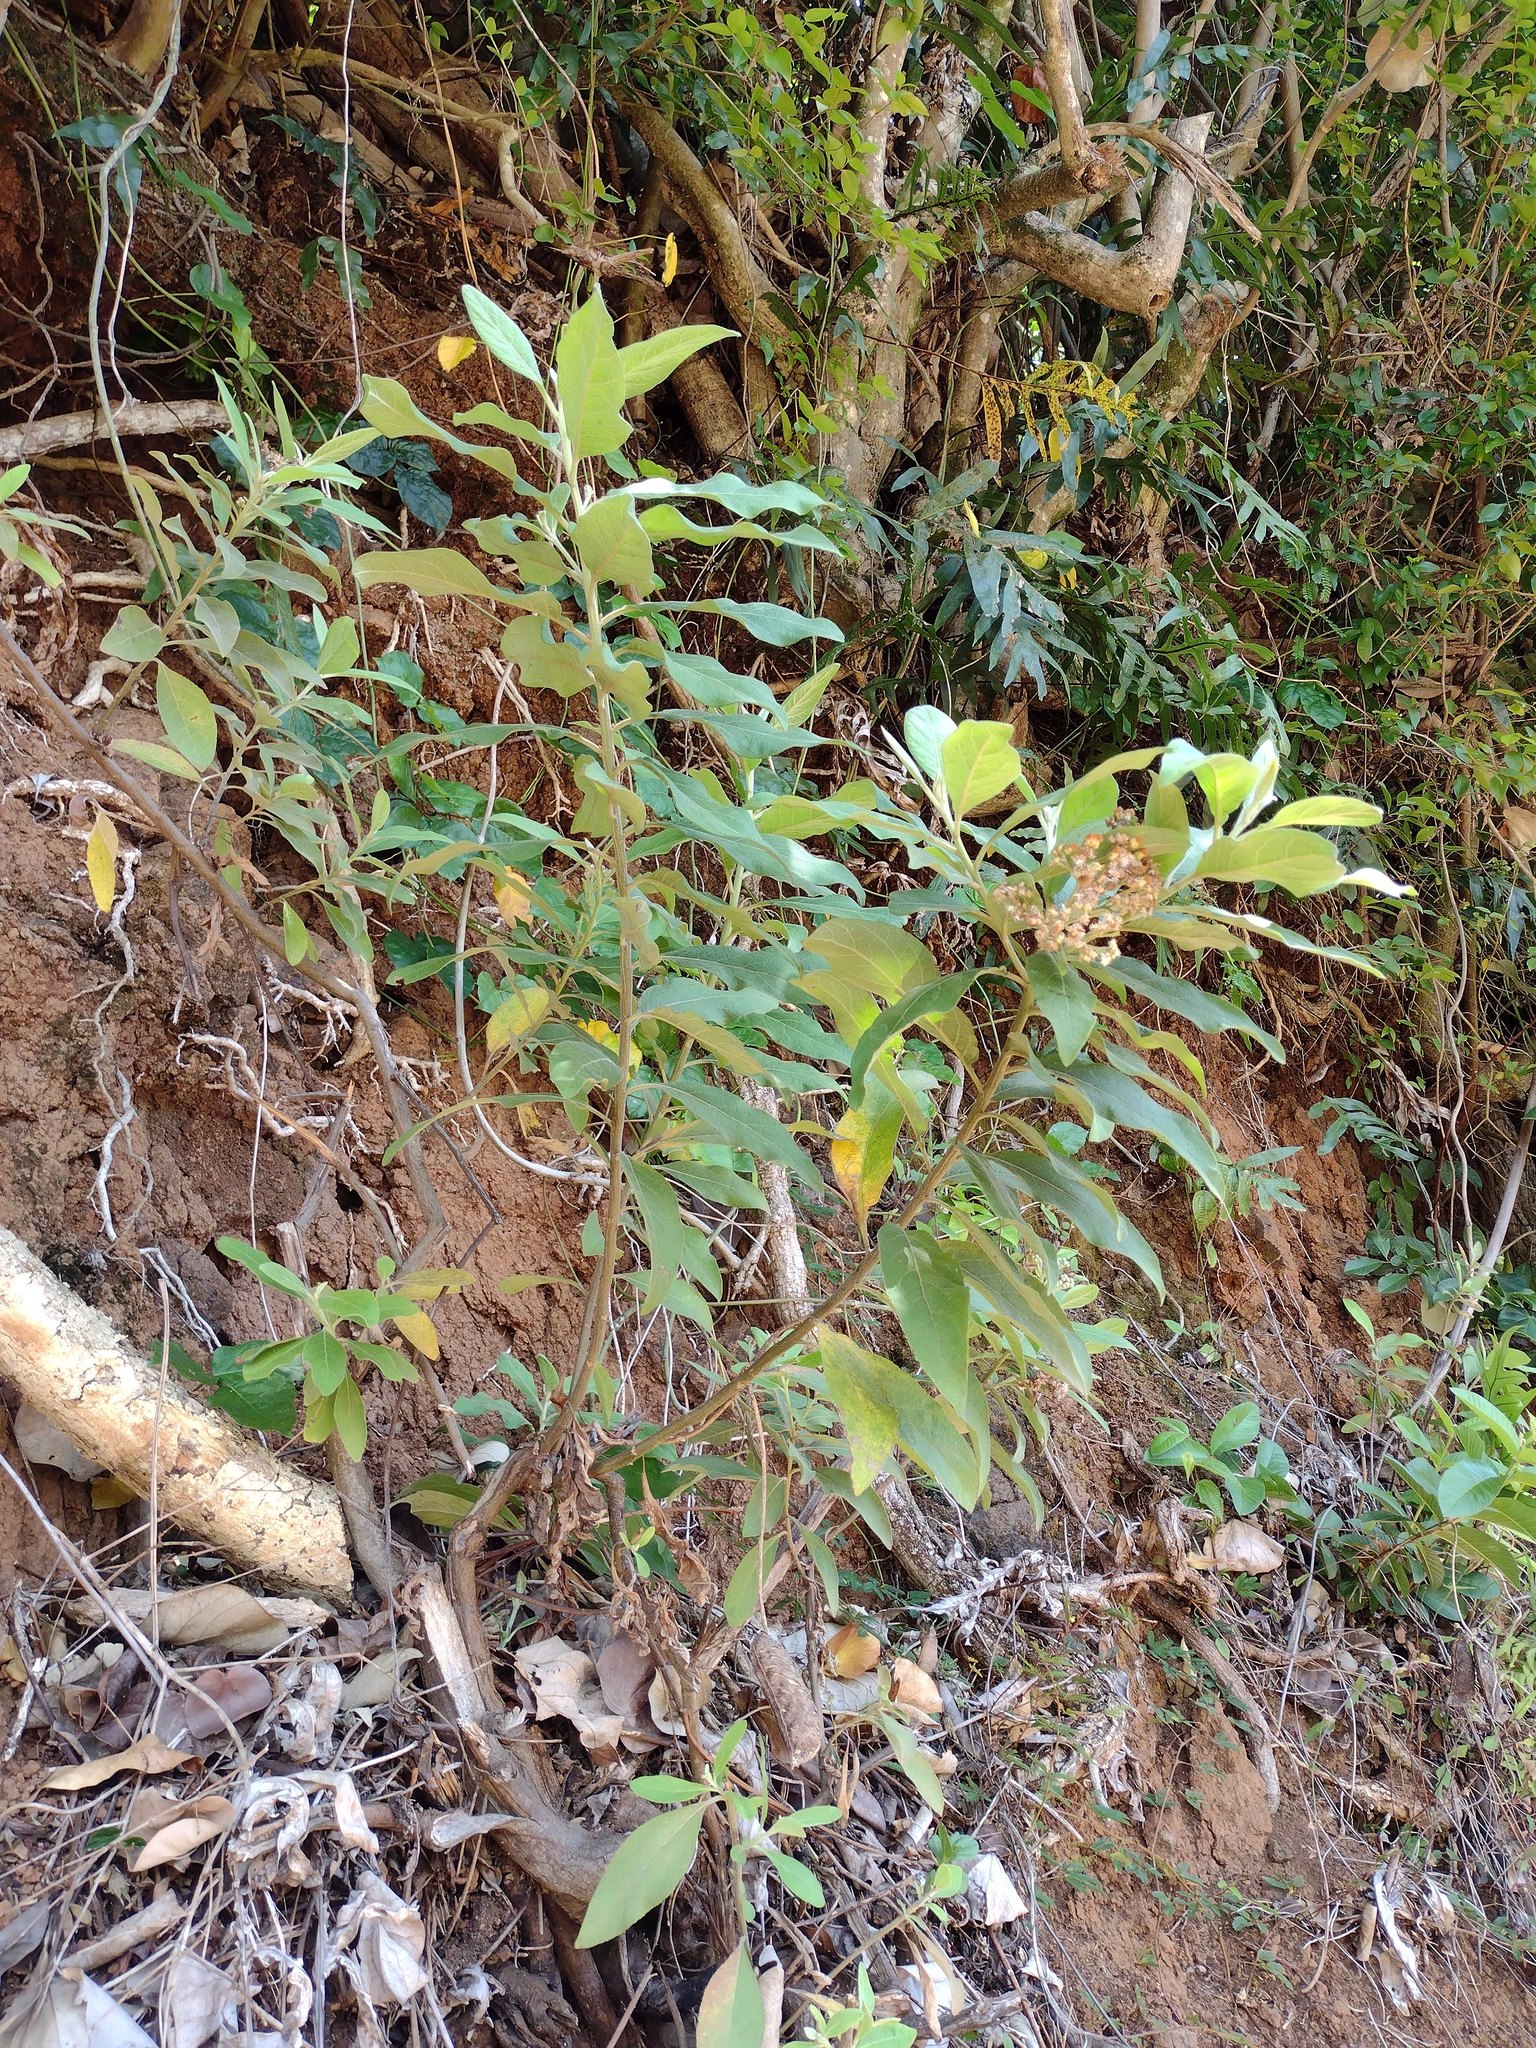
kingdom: Plantae
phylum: Tracheophyta
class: Magnoliopsida
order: Asterales
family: Asteraceae
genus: Pluchea
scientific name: Pluchea carolinensis
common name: Marsh fleabane
